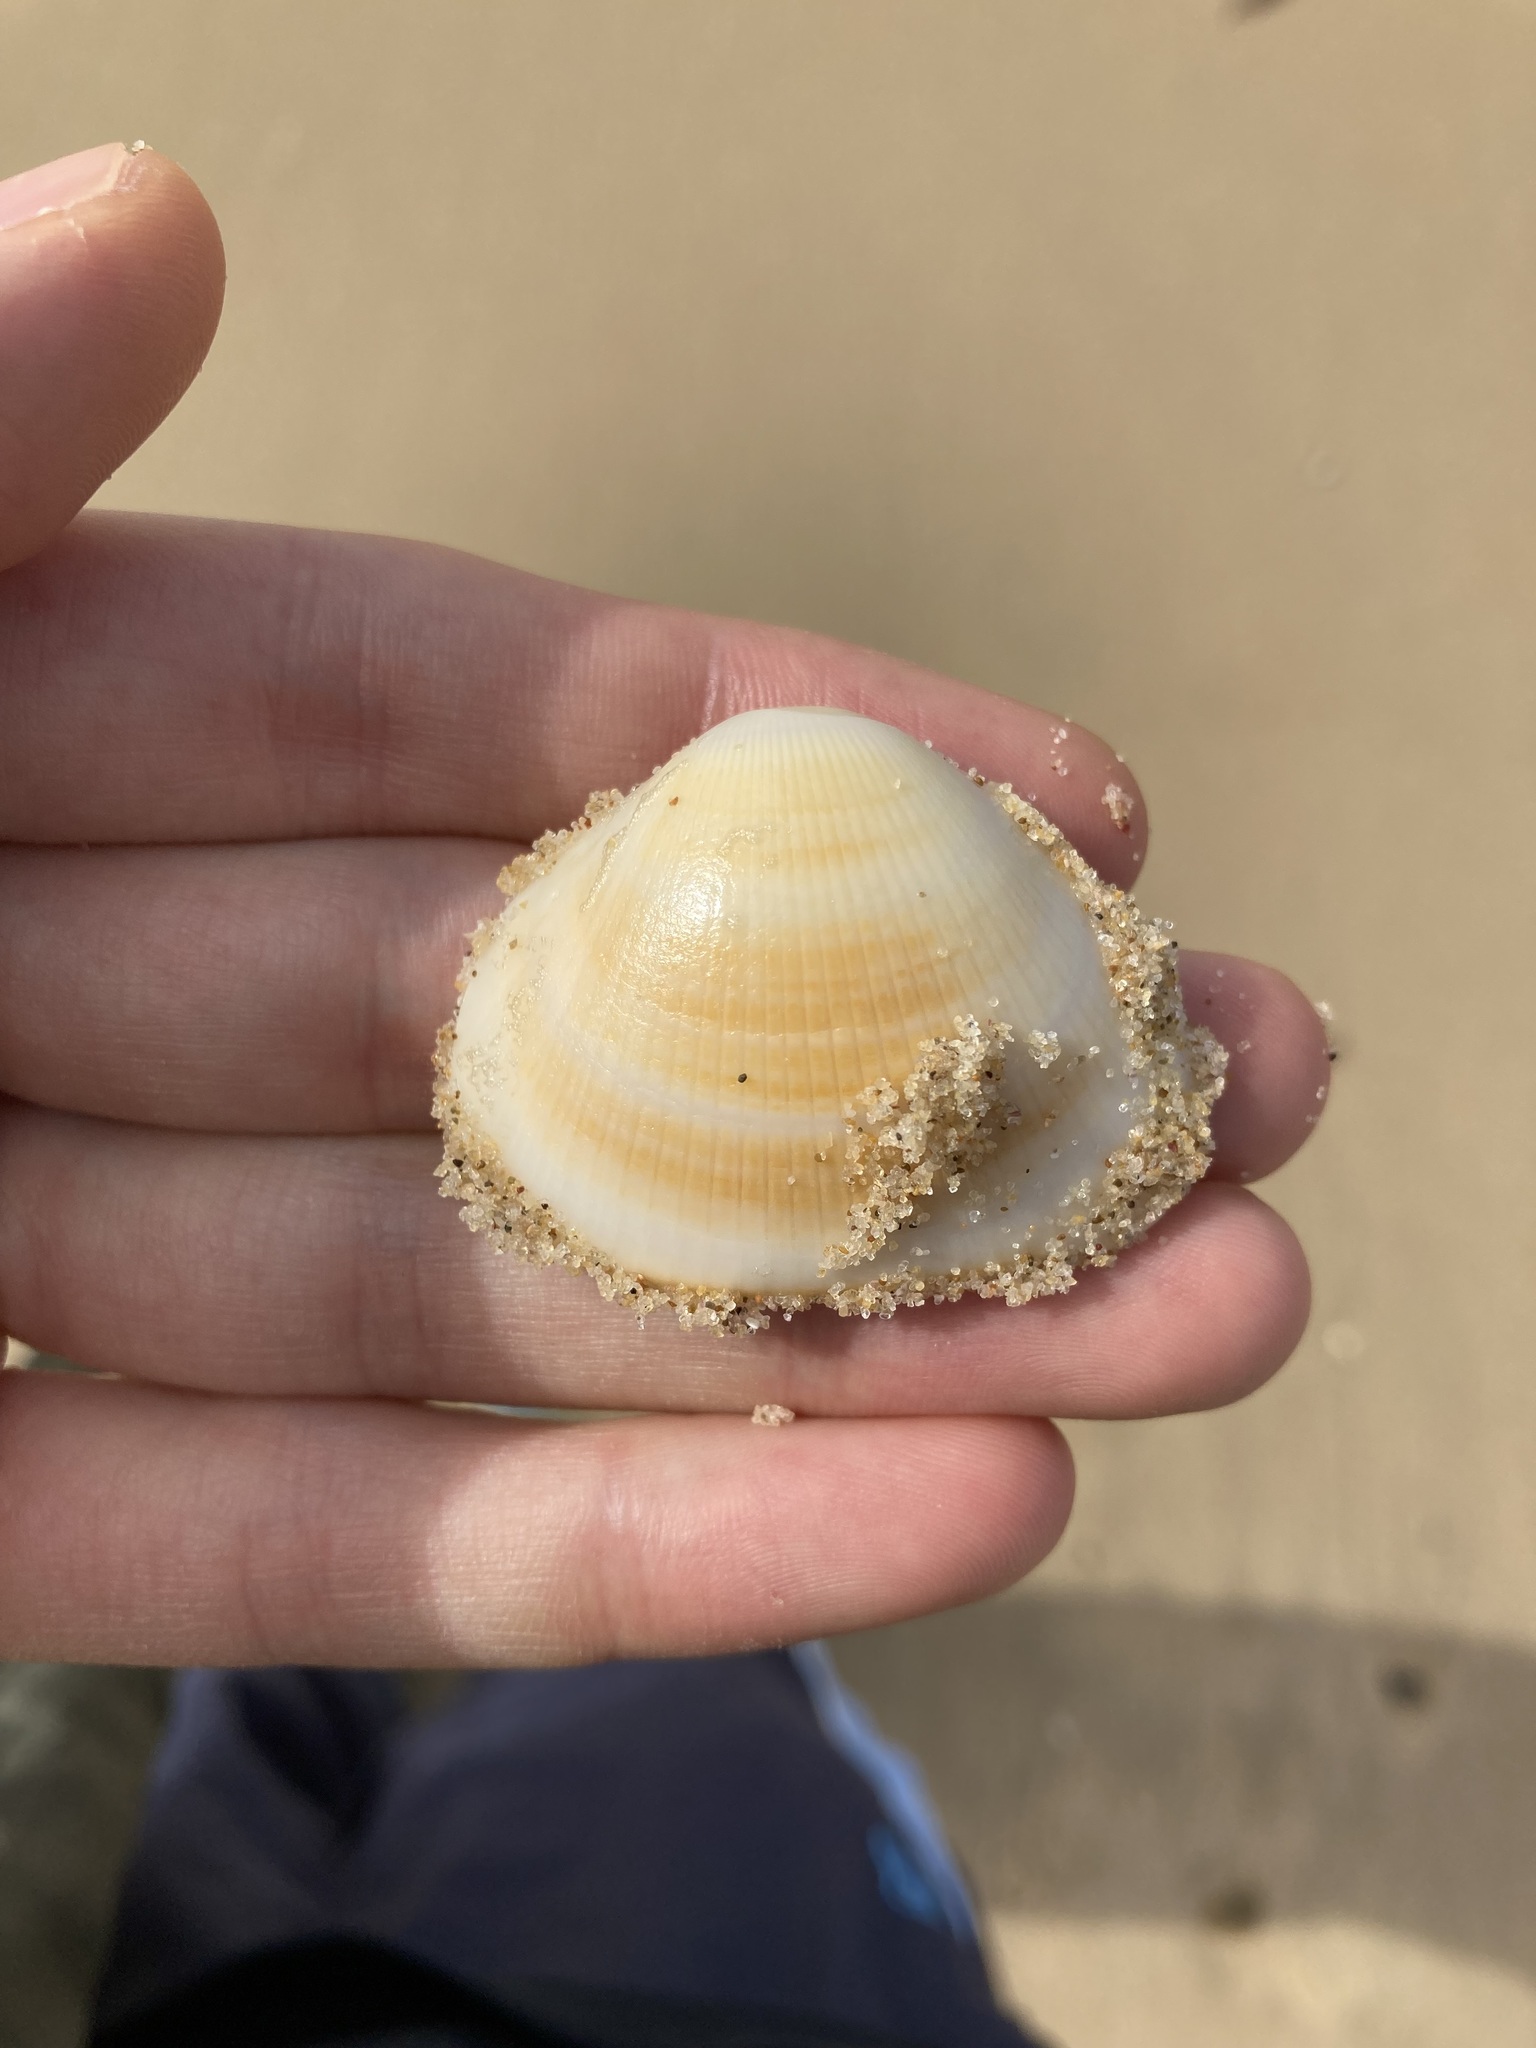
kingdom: Animalia
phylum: Mollusca
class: Bivalvia
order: Arcida
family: Glycymerididae
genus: Glycymeris
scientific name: Glycymeris grayana
